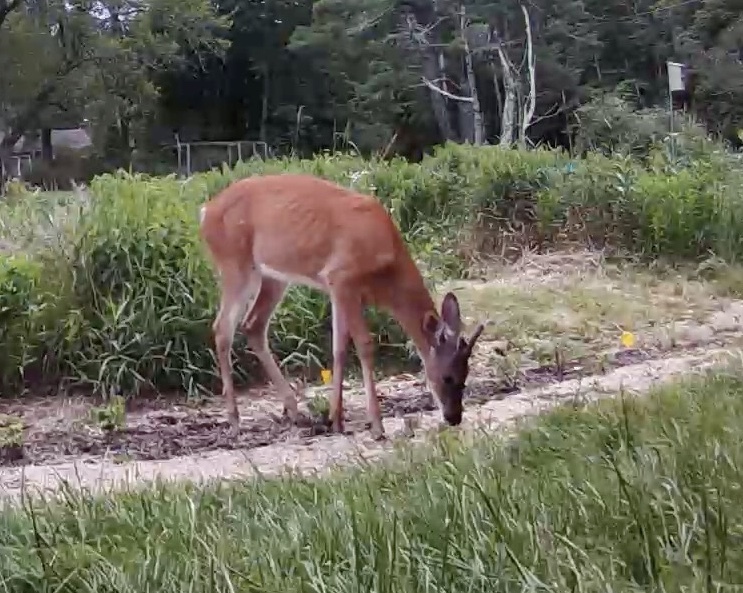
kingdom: Animalia
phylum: Chordata
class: Mammalia
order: Artiodactyla
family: Cervidae
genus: Odocoileus
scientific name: Odocoileus virginianus
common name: White-tailed deer
